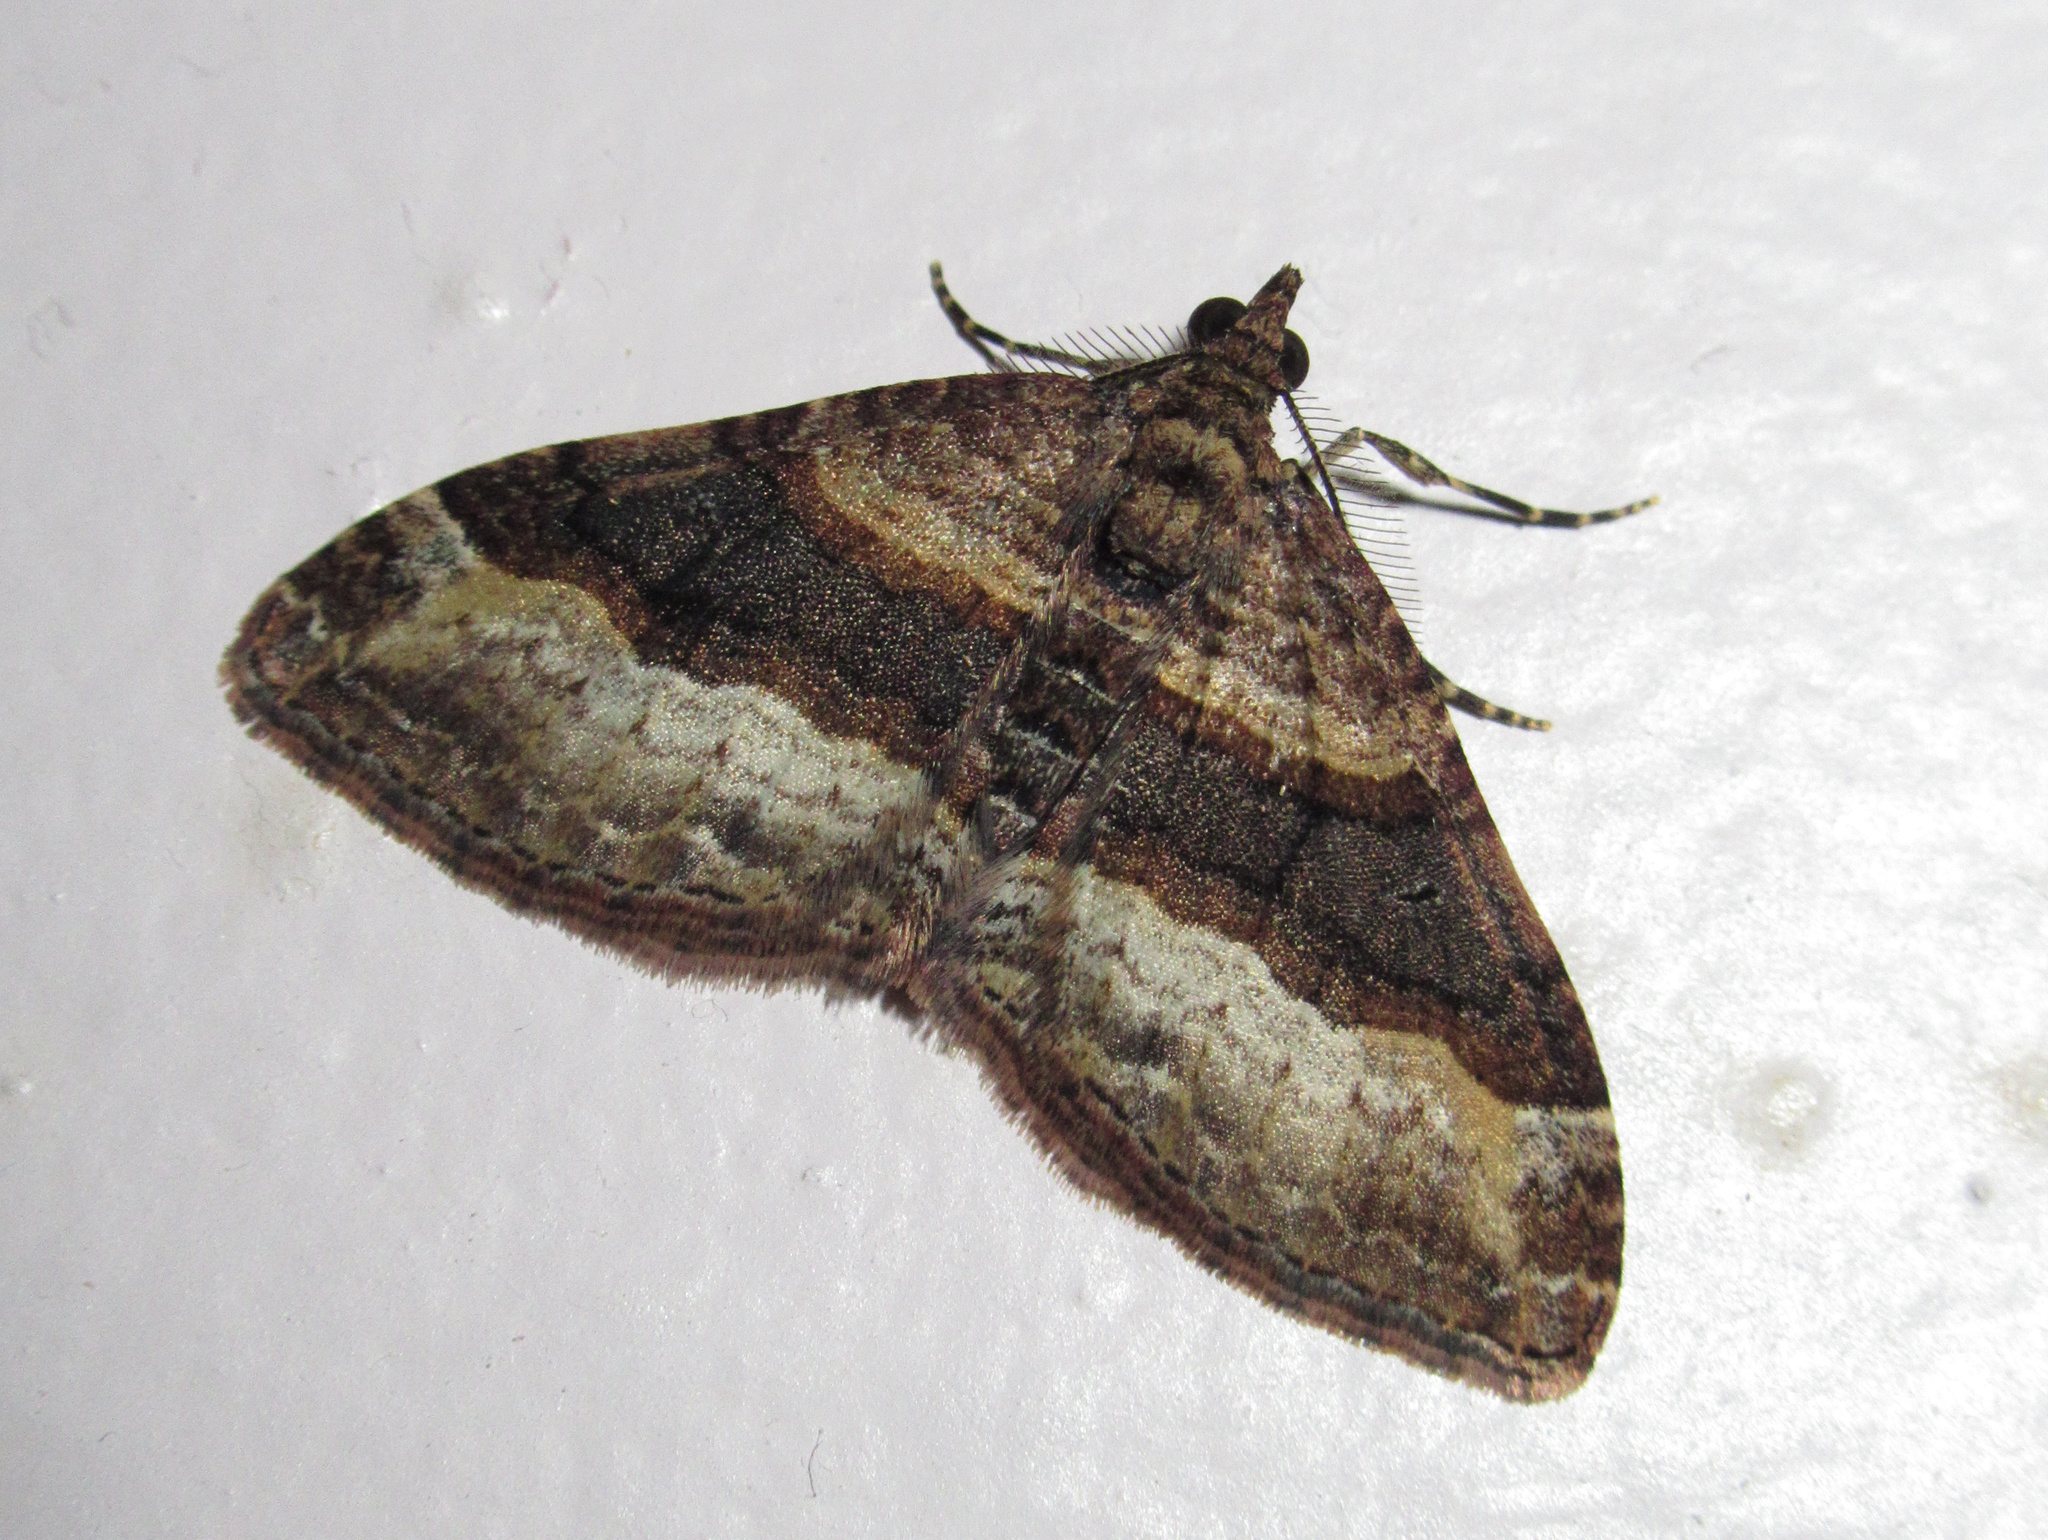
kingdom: Animalia
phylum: Arthropoda
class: Insecta
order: Lepidoptera
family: Geometridae
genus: Epyaxa
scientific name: Epyaxa lucidata
